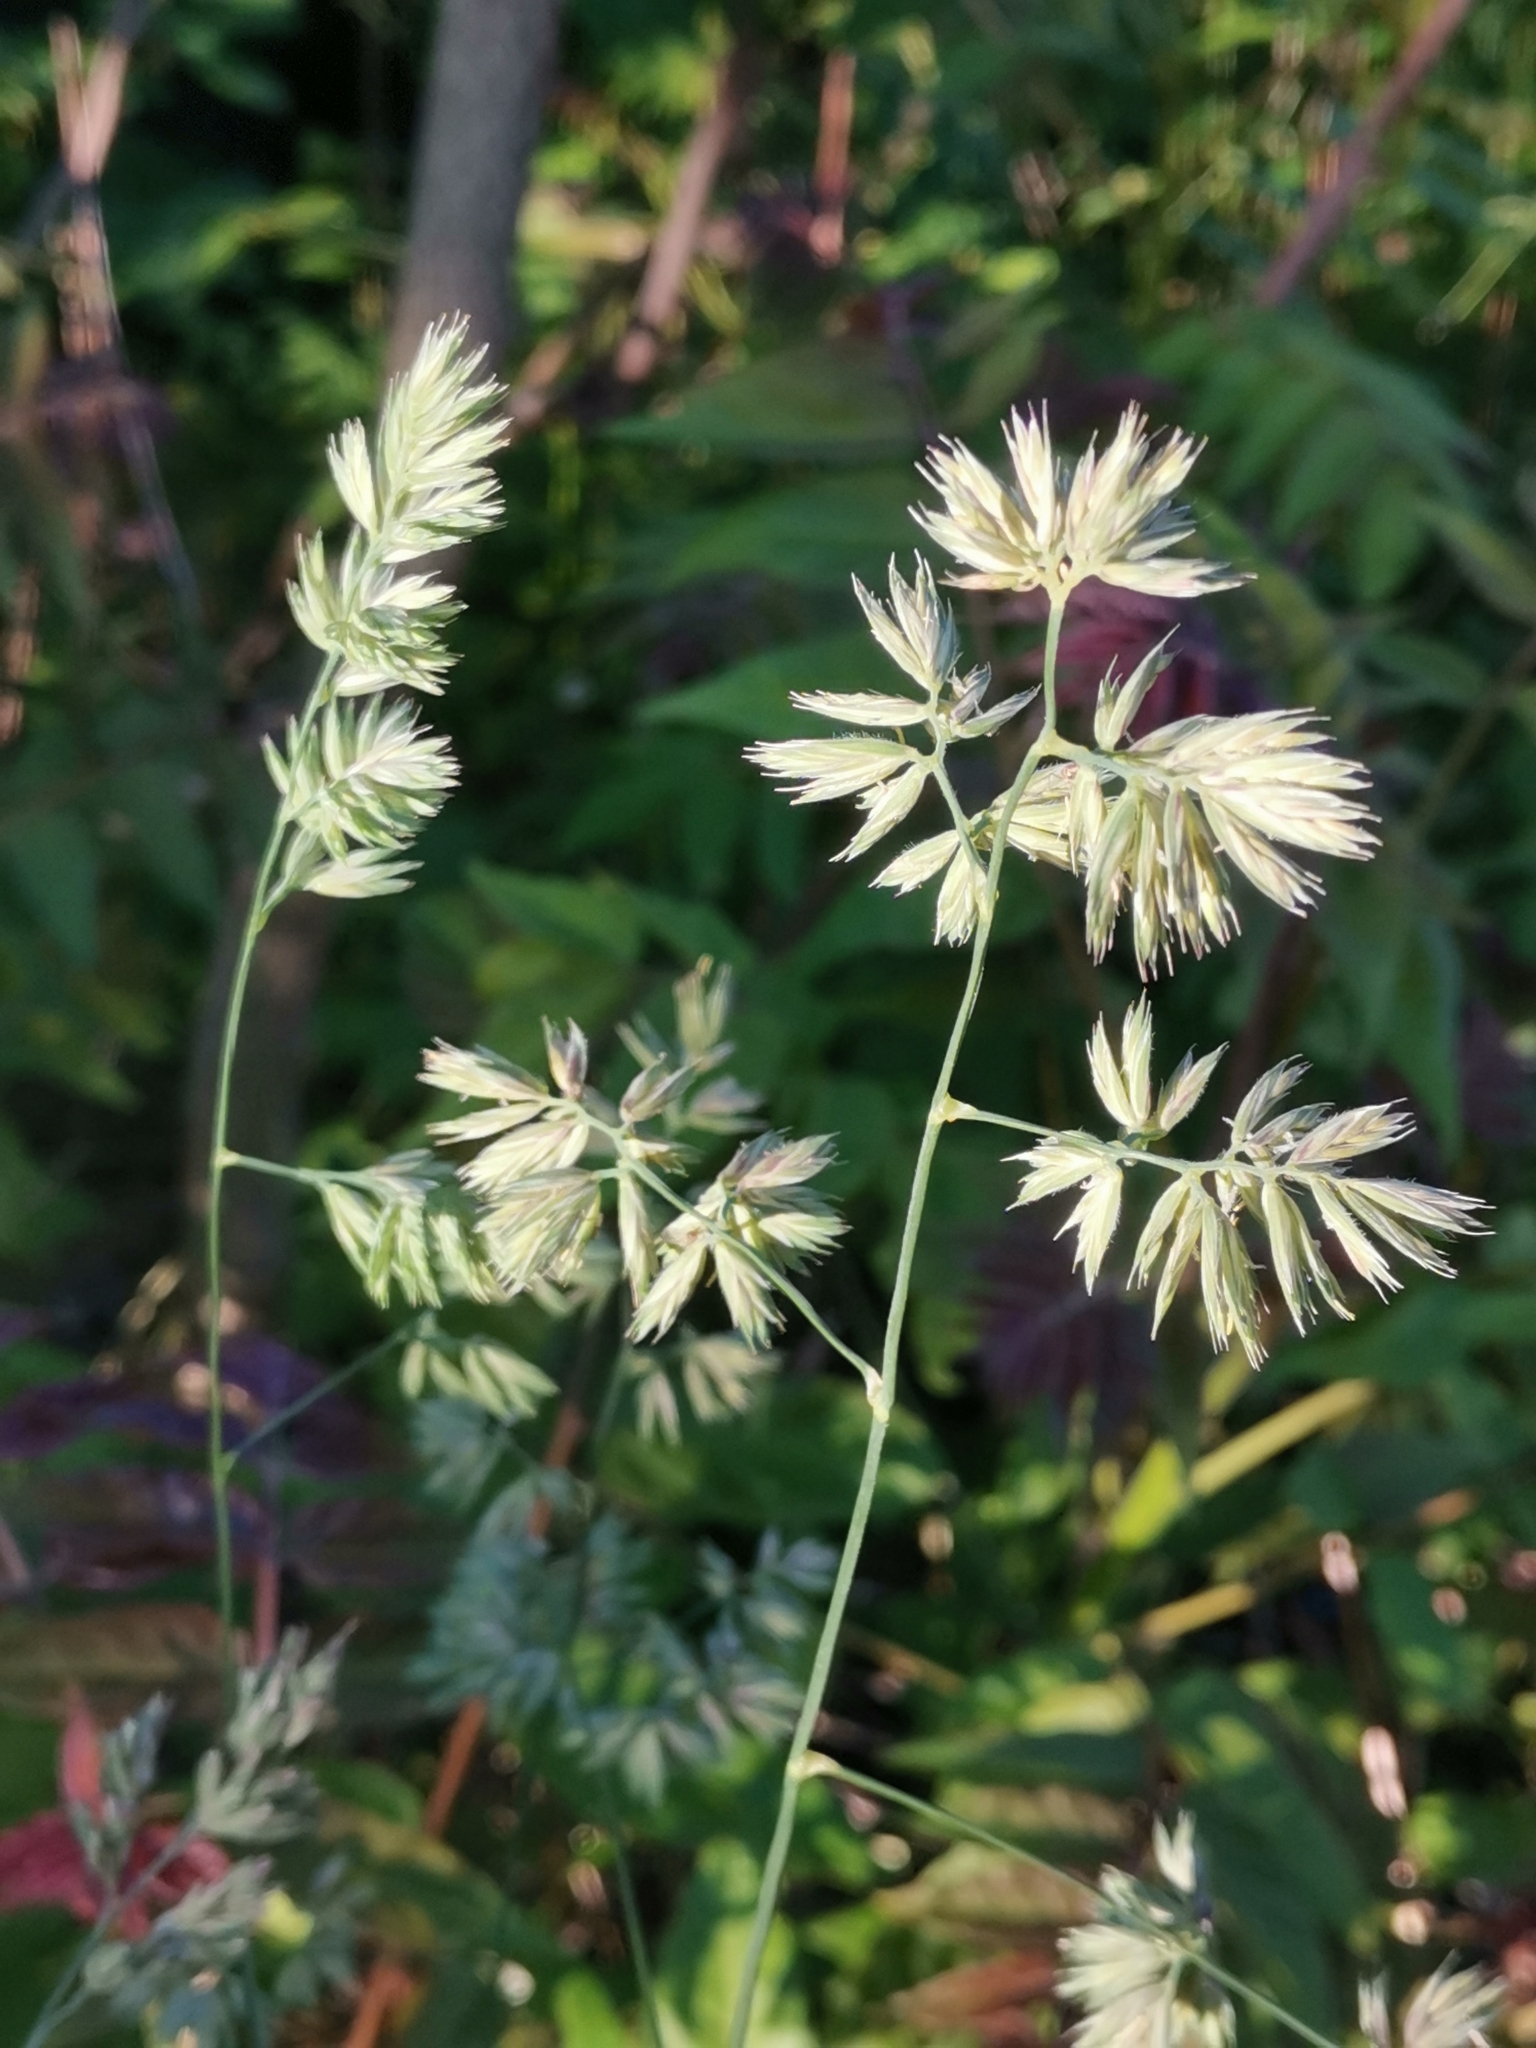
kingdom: Plantae
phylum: Tracheophyta
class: Liliopsida
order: Poales
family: Poaceae
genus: Dactylis
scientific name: Dactylis glomerata
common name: Orchardgrass
